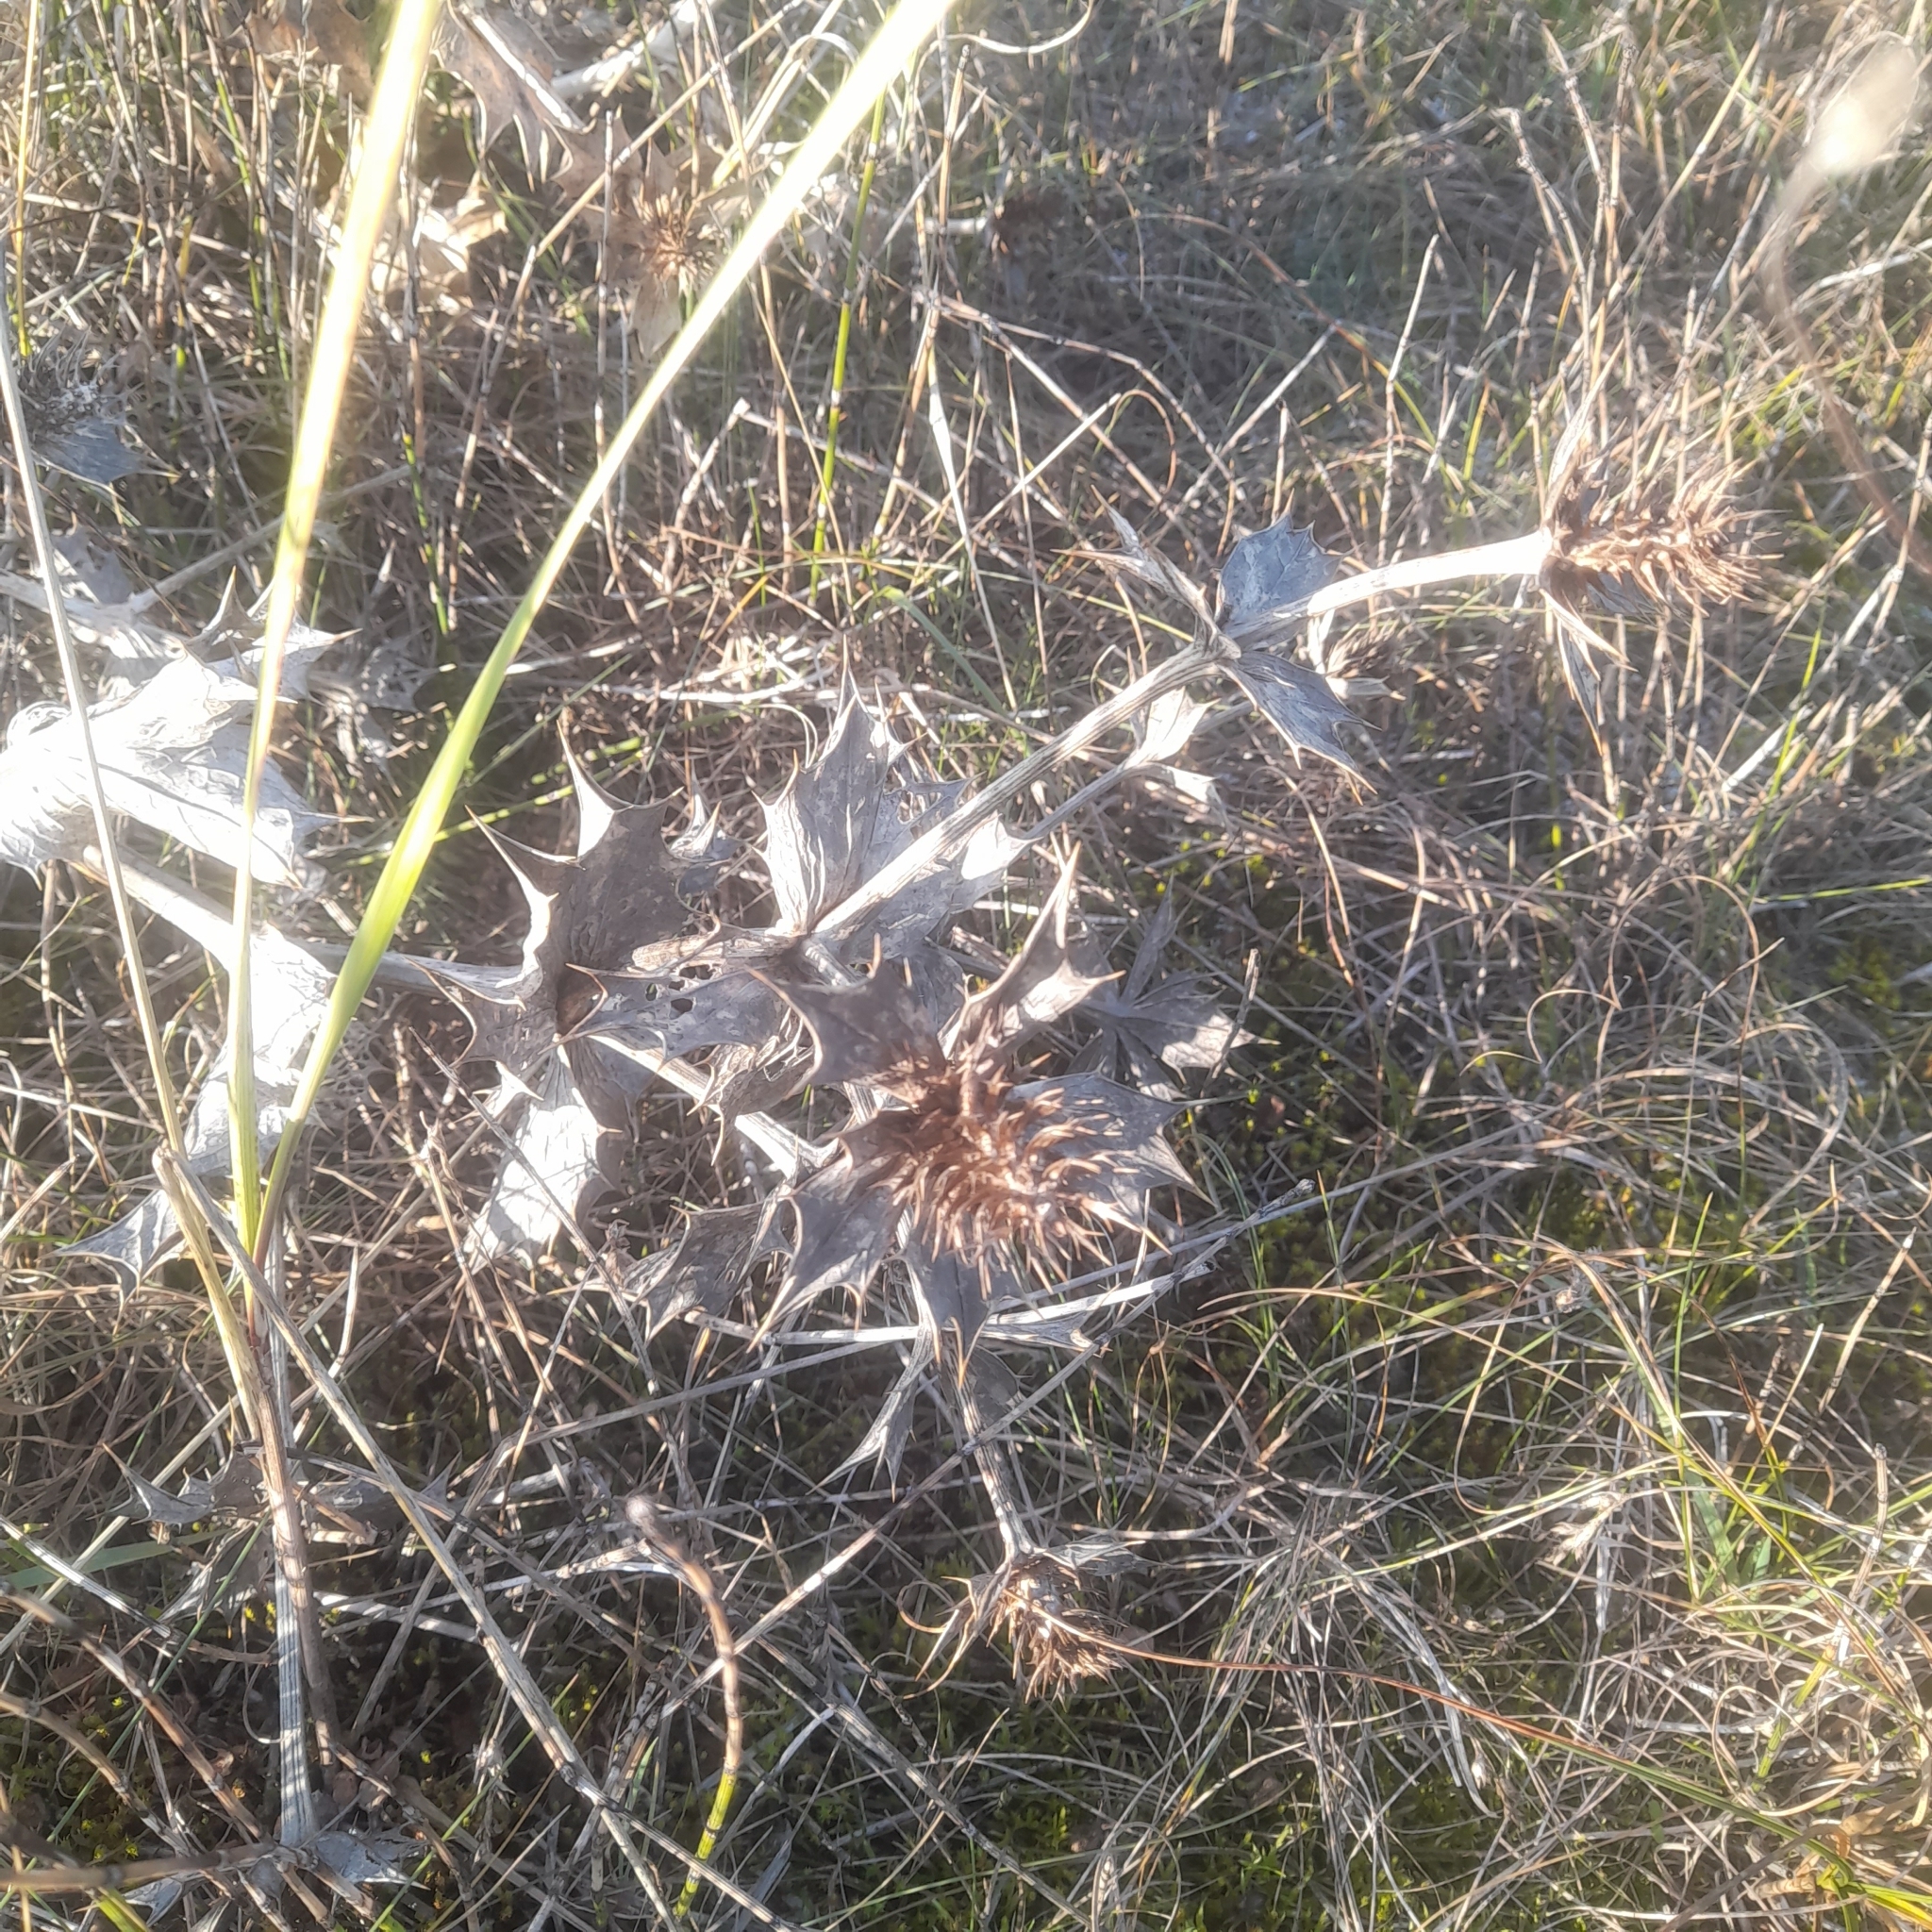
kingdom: Plantae
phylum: Tracheophyta
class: Magnoliopsida
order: Apiales
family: Apiaceae
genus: Eryngium
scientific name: Eryngium maritimum
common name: Sea-holly
